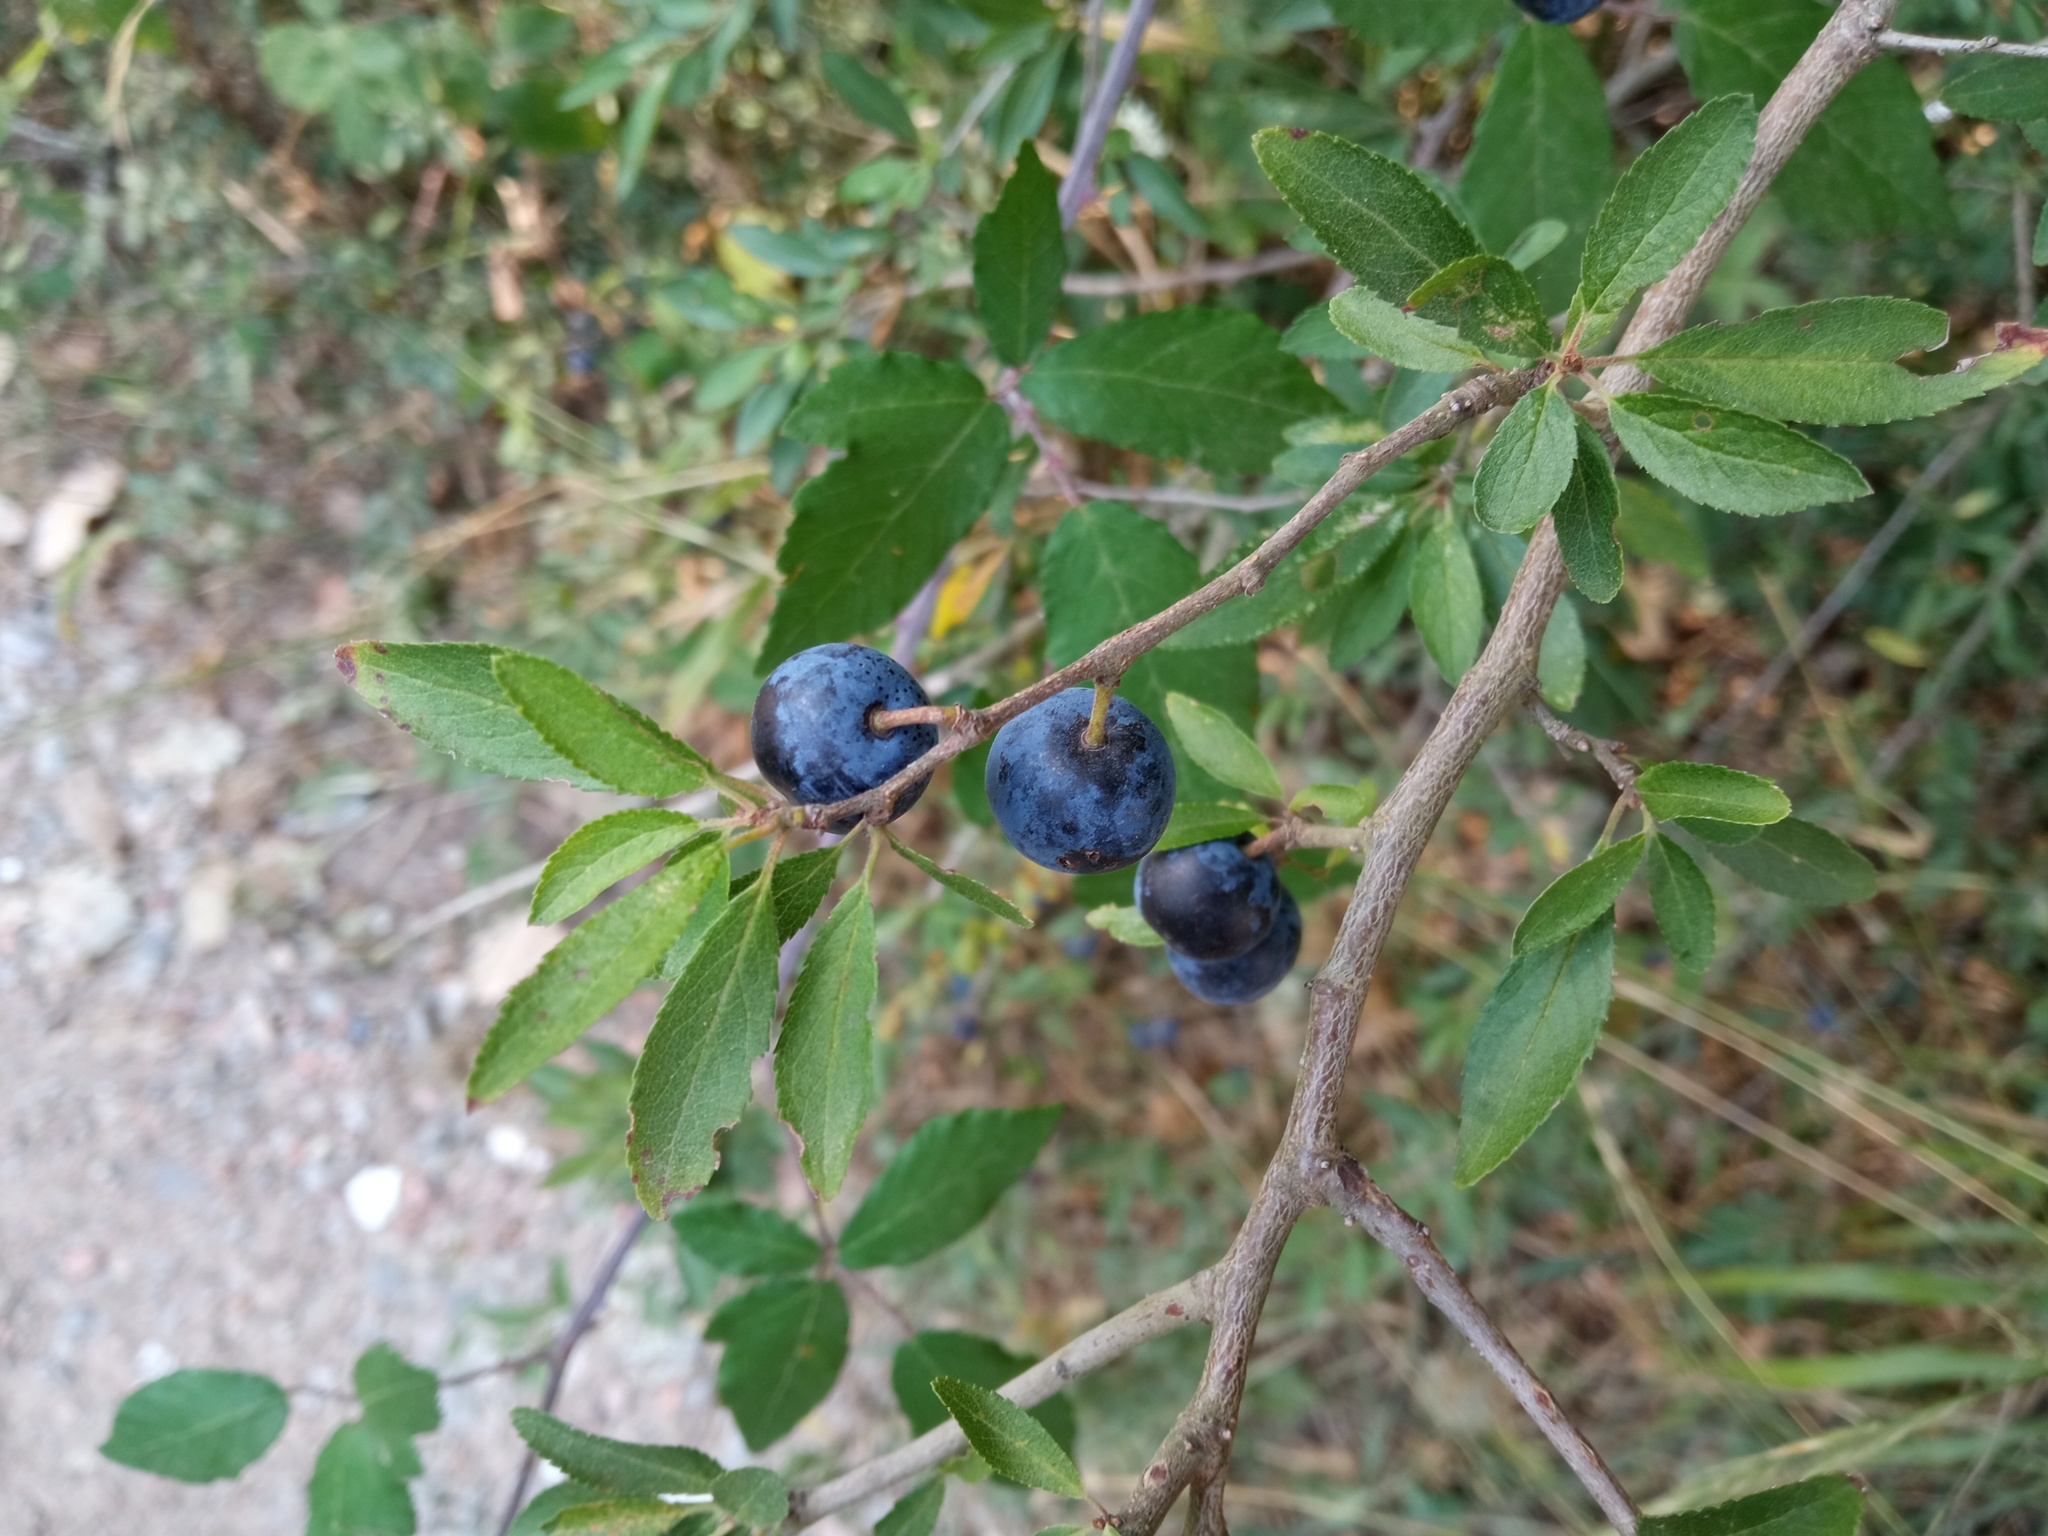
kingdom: Plantae
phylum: Tracheophyta
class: Magnoliopsida
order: Rosales
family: Rosaceae
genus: Prunus
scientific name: Prunus spinosa
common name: Blackthorn
